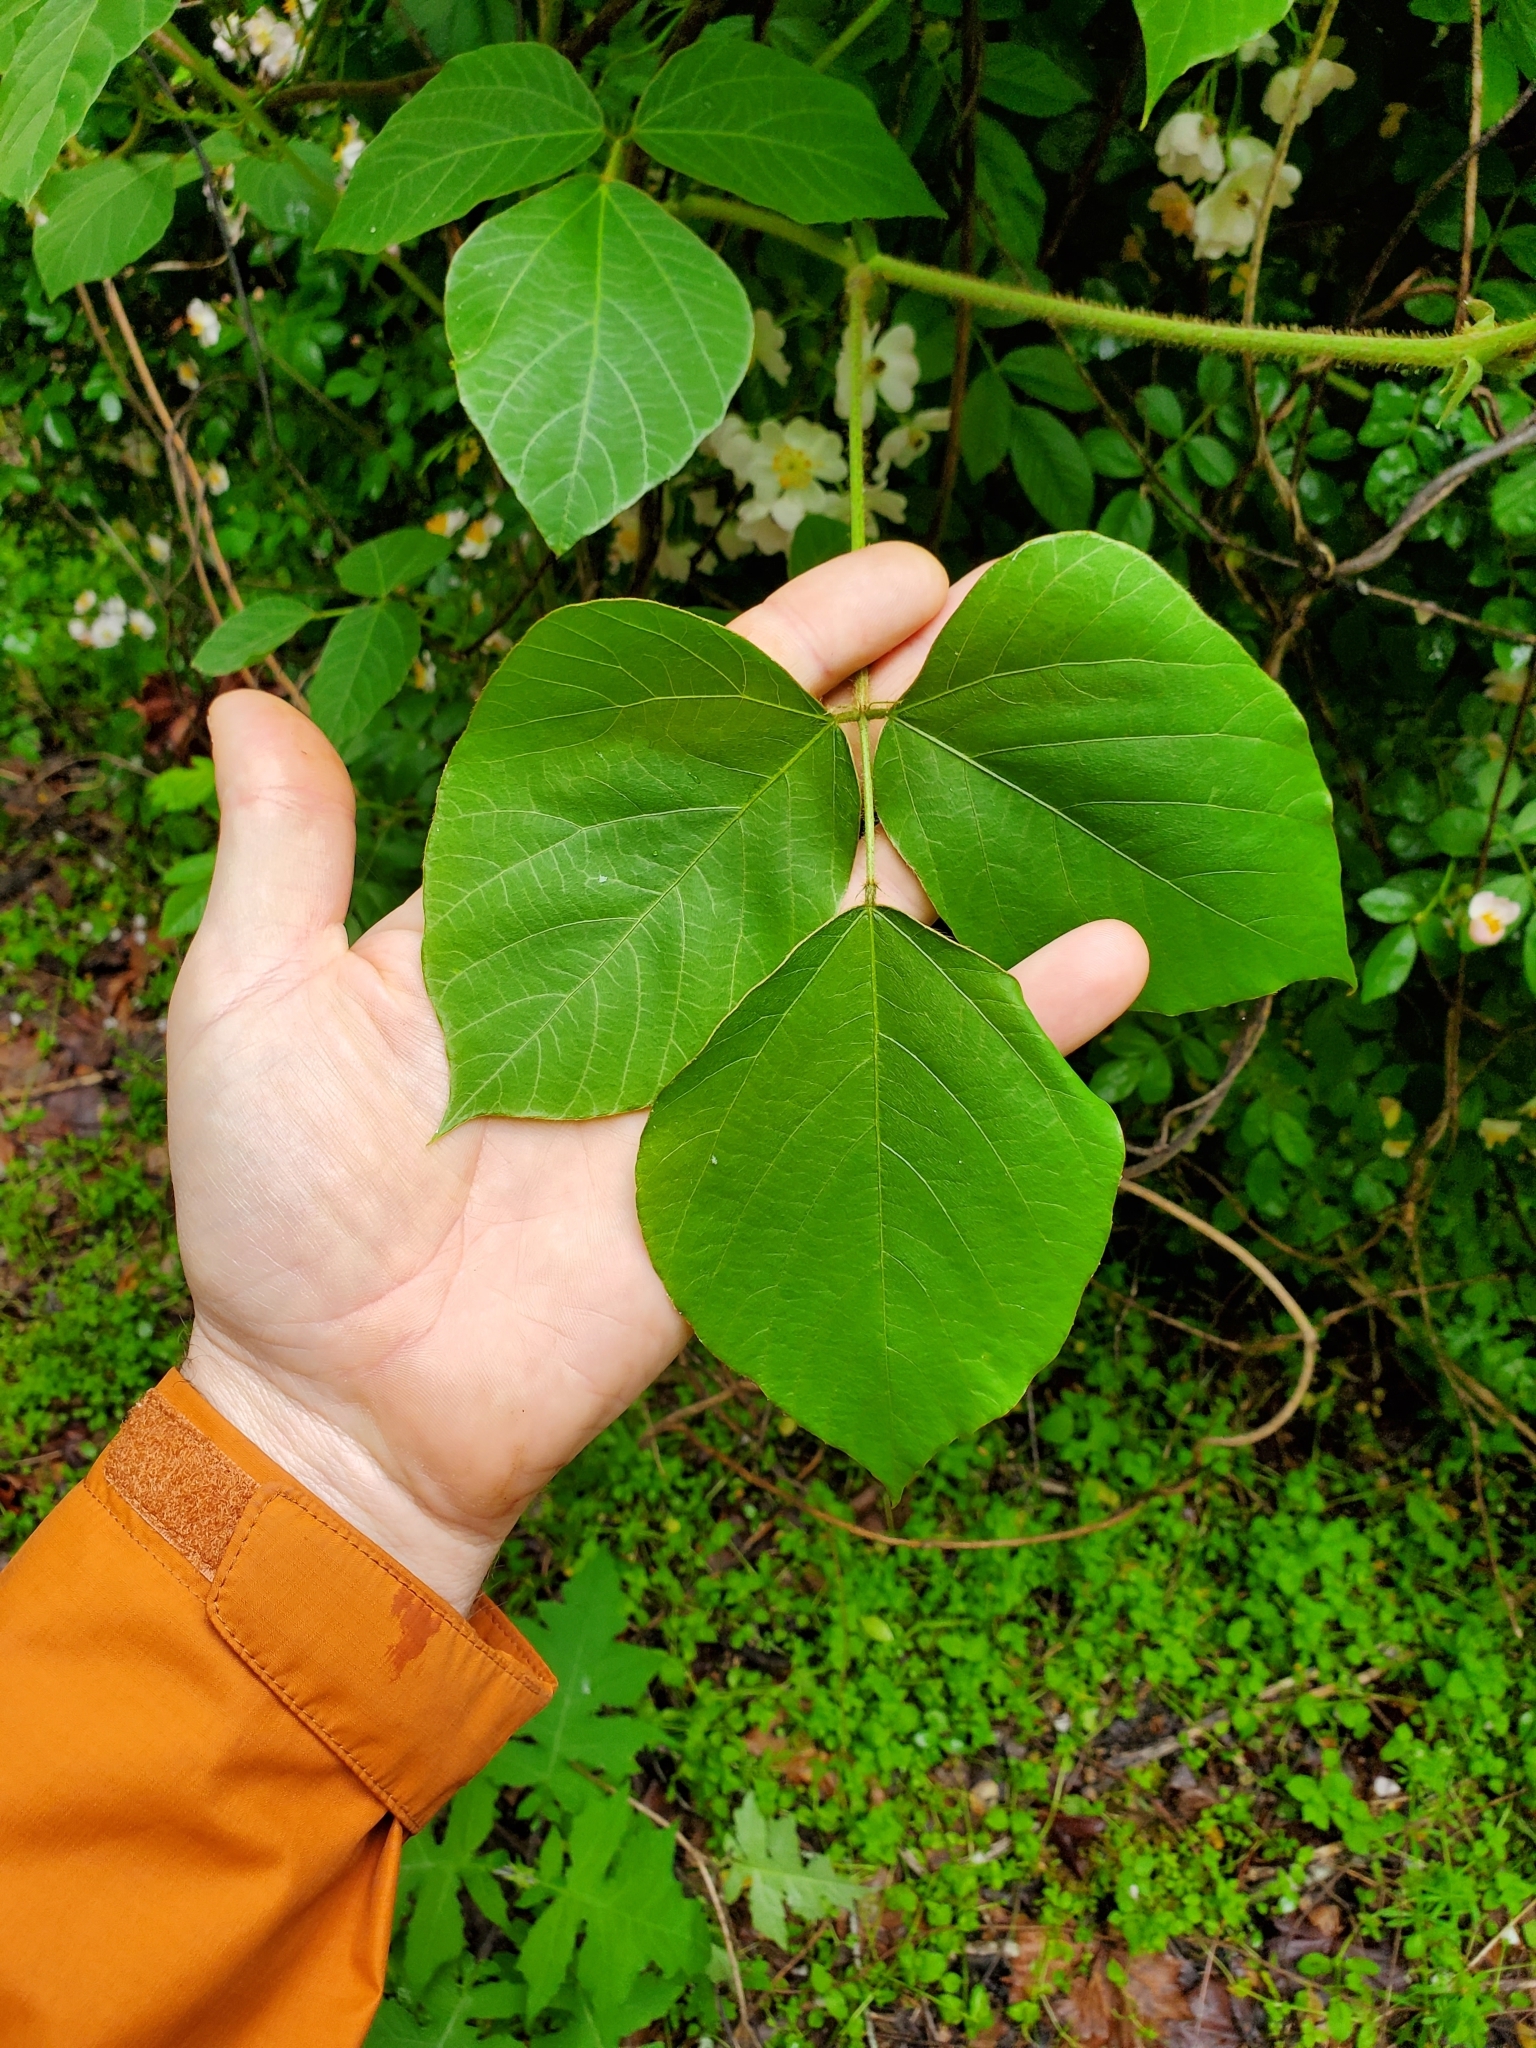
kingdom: Plantae
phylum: Tracheophyta
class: Magnoliopsida
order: Fabales
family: Fabaceae
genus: Pueraria
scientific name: Pueraria montana
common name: Kudzu
